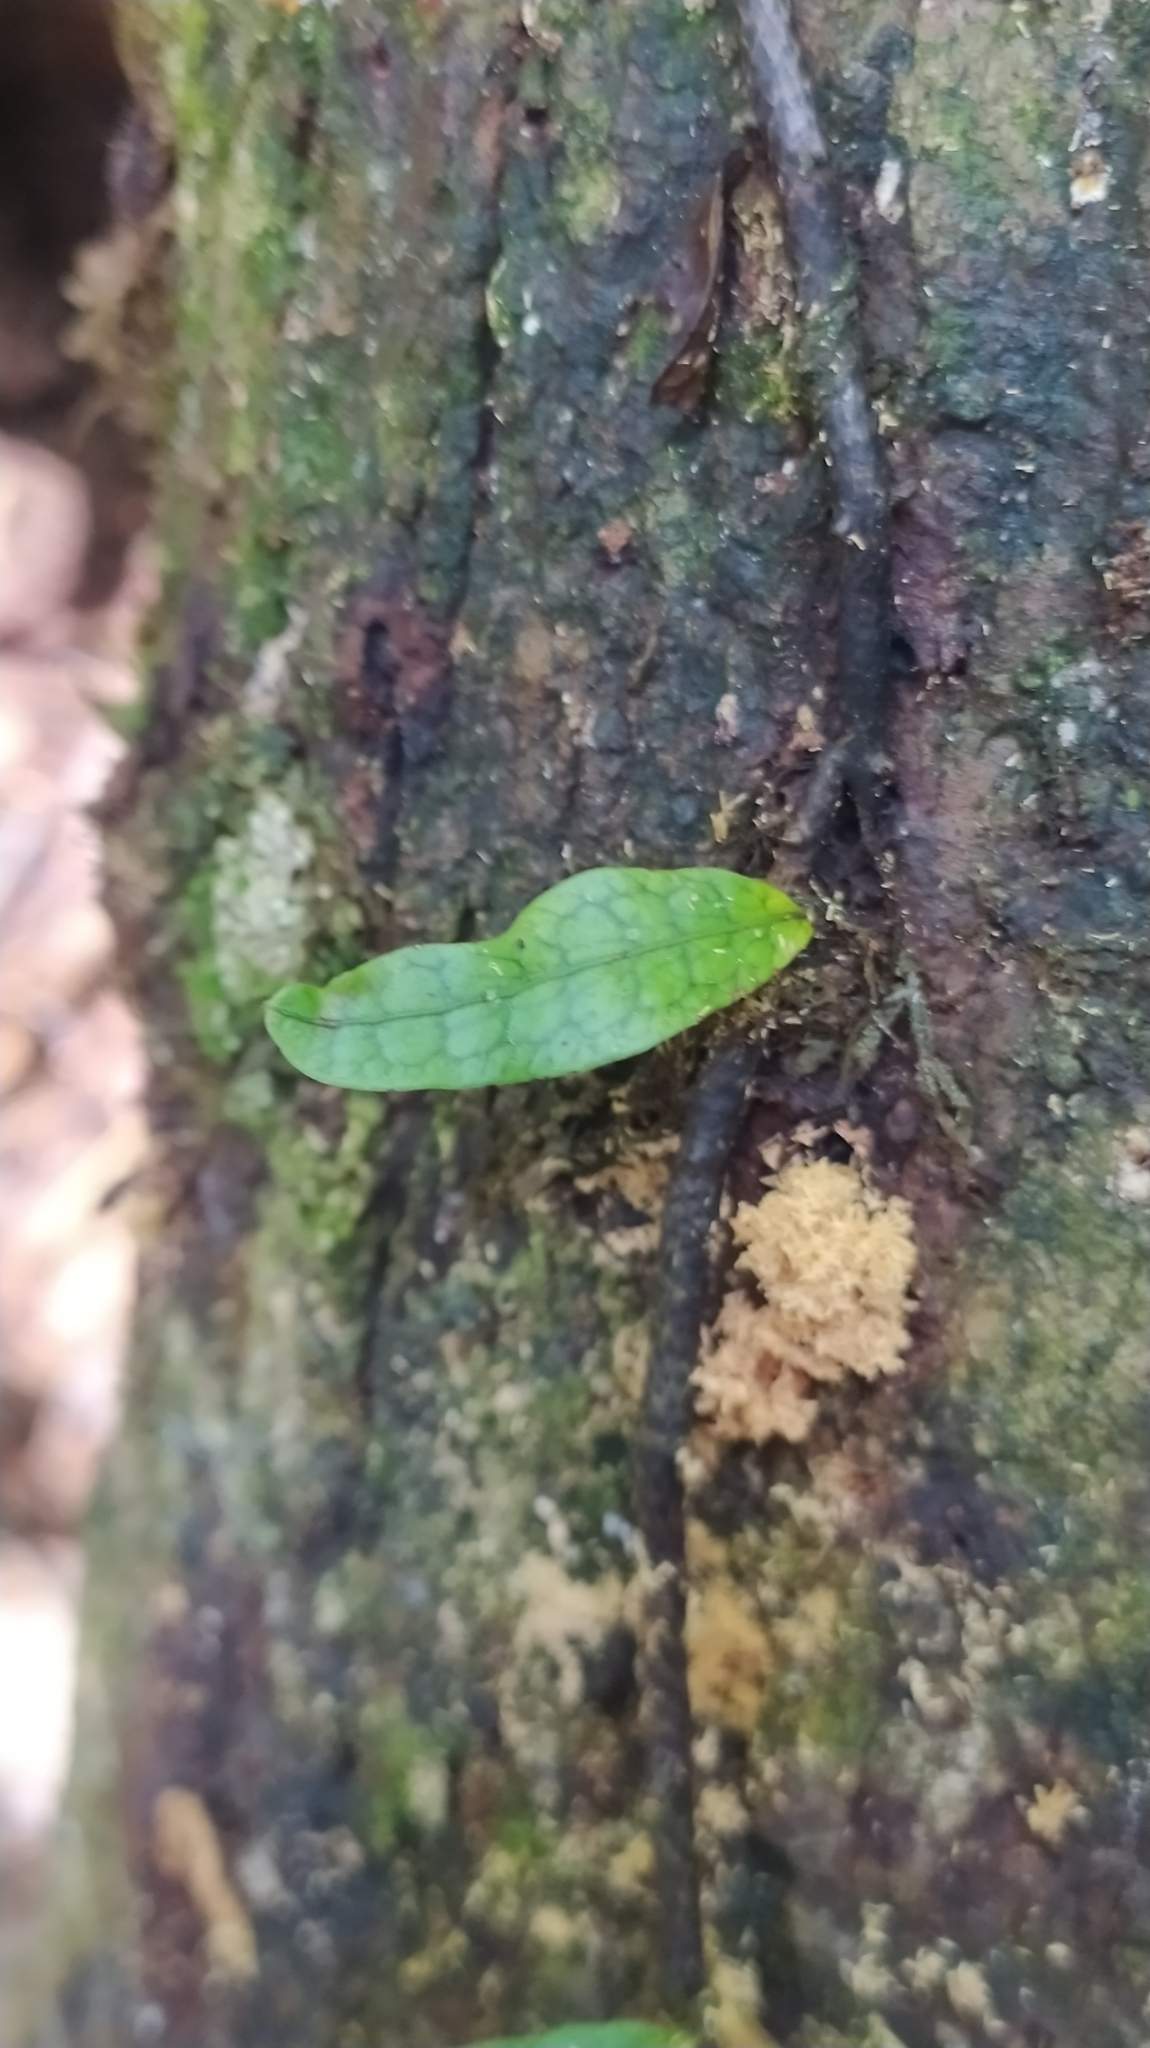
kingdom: Plantae
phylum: Tracheophyta
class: Polypodiopsida
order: Polypodiales
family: Polypodiaceae
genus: Microgramma
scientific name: Microgramma lycopodioides
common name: Bastard catclaw
